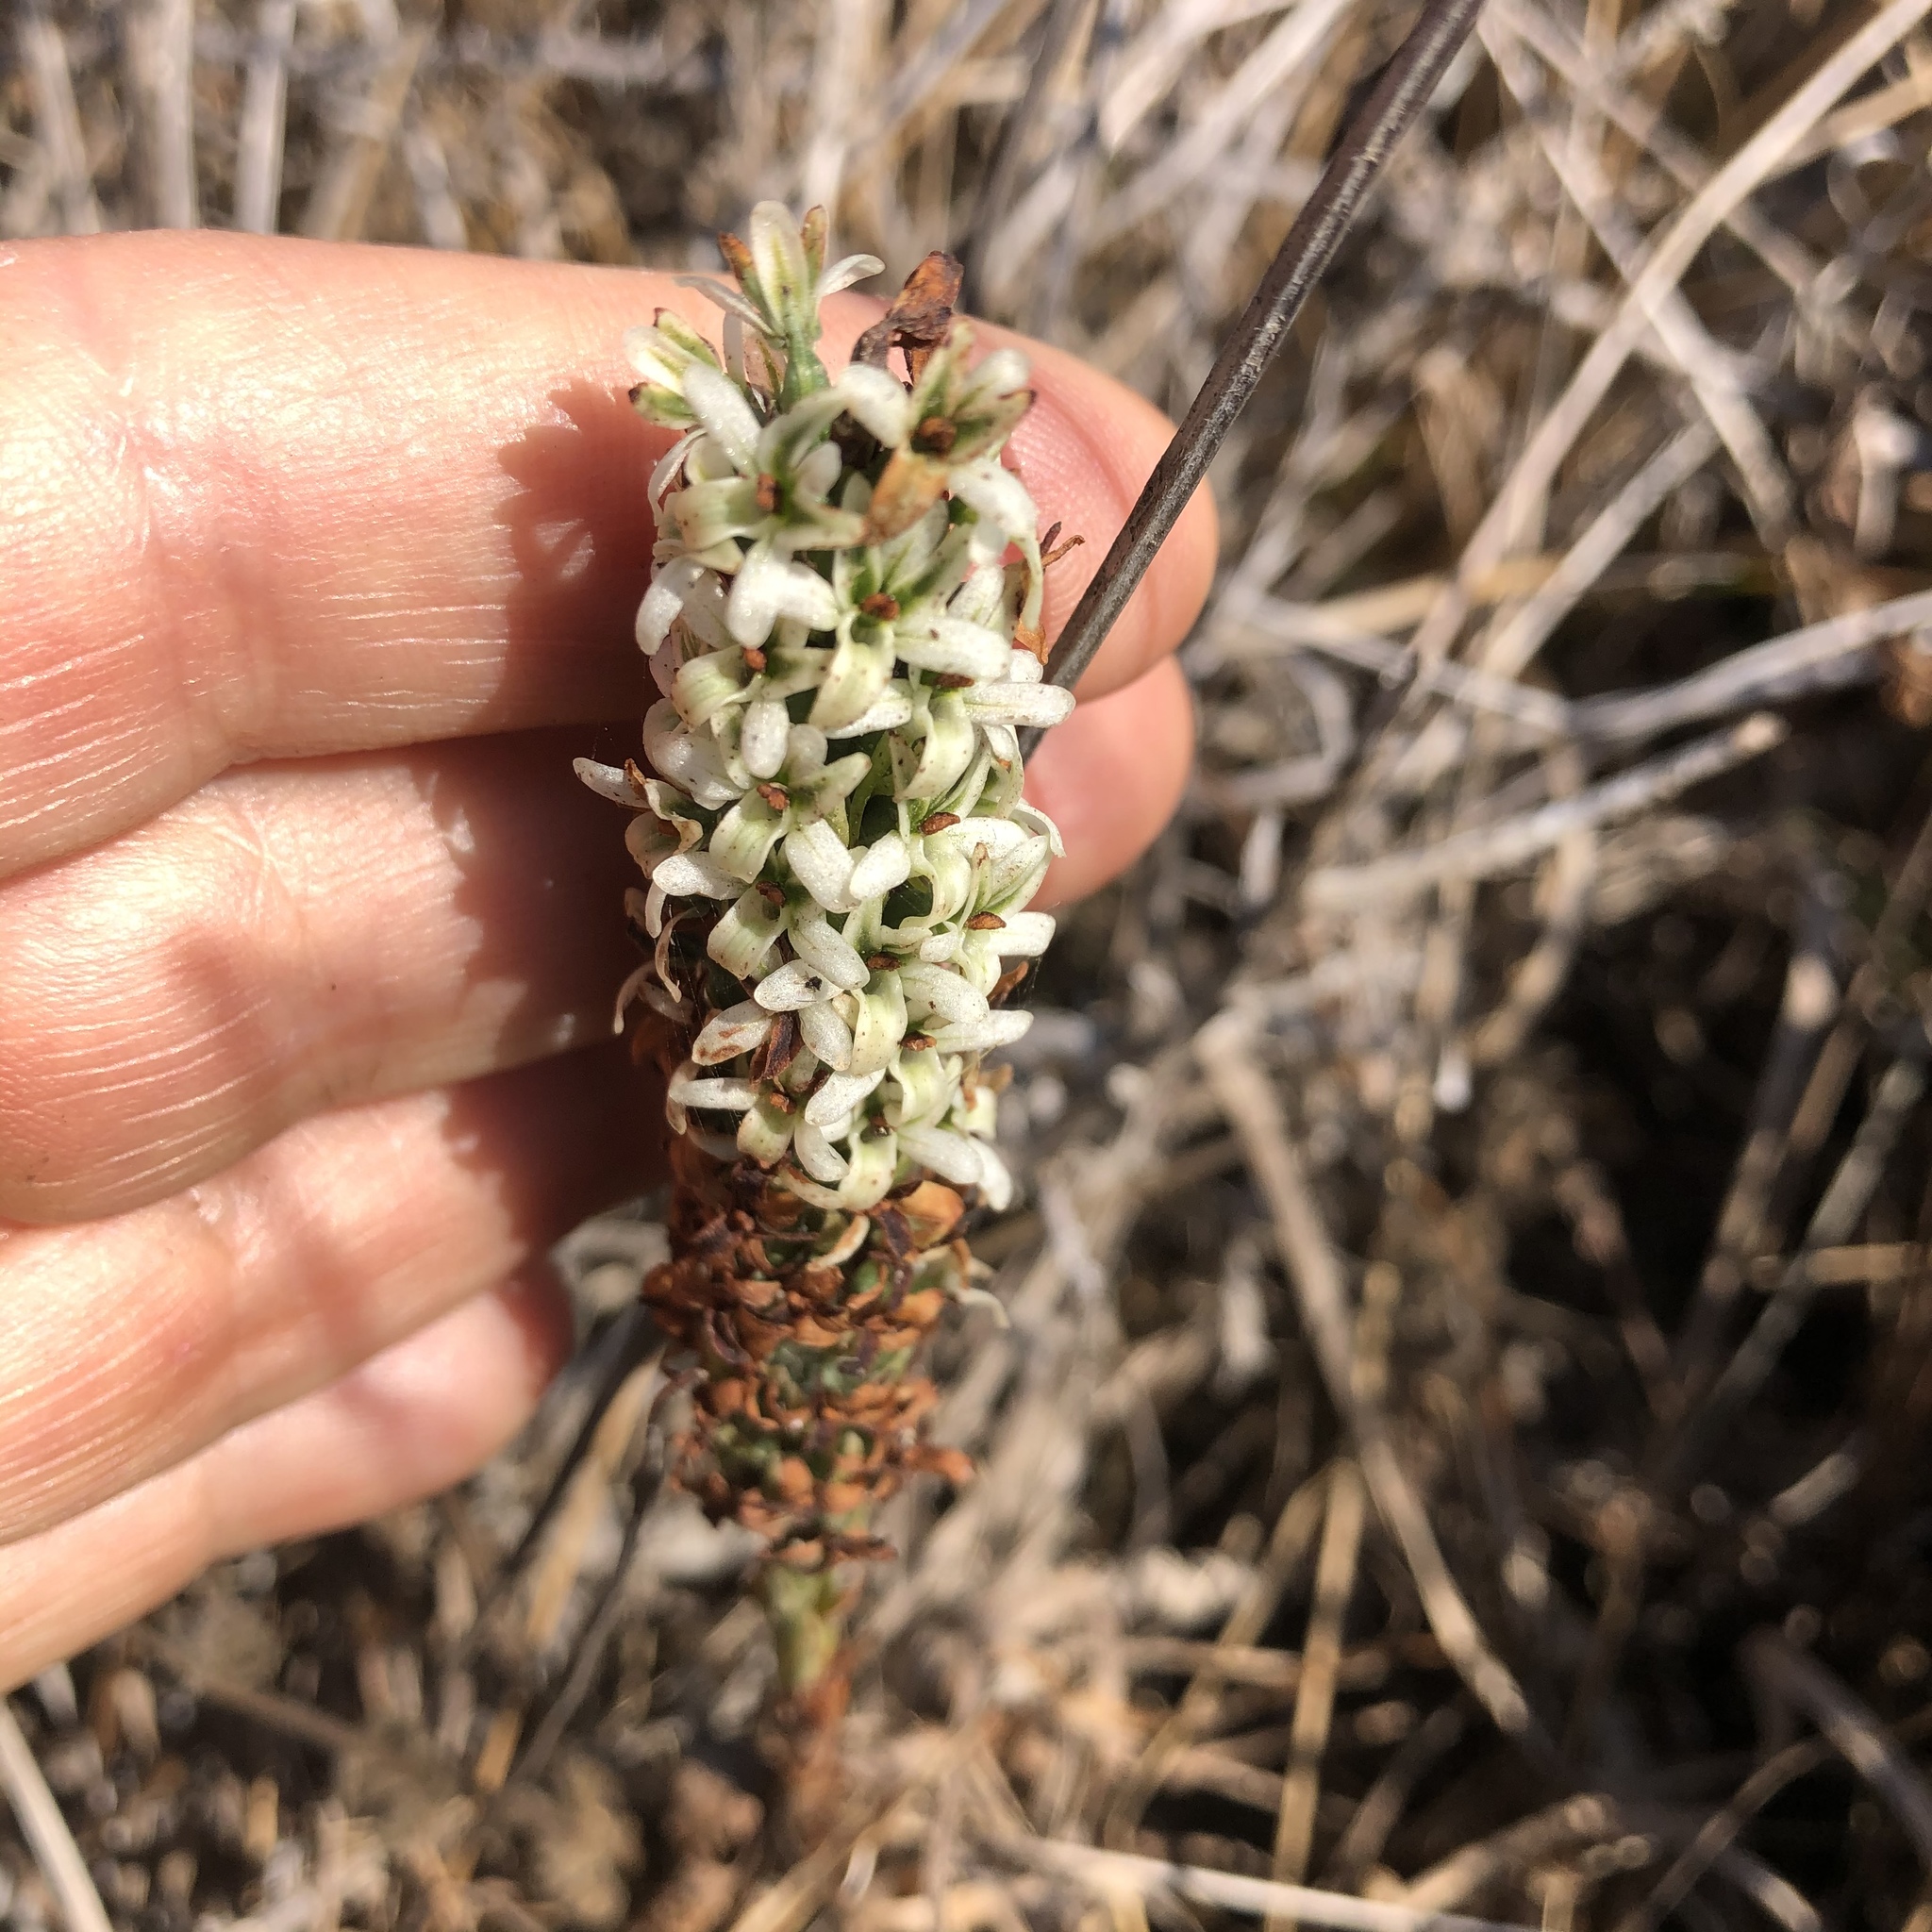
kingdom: Plantae
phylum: Tracheophyta
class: Liliopsida
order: Asparagales
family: Orchidaceae
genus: Platanthera
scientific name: Platanthera elegans
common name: Coast piperia
